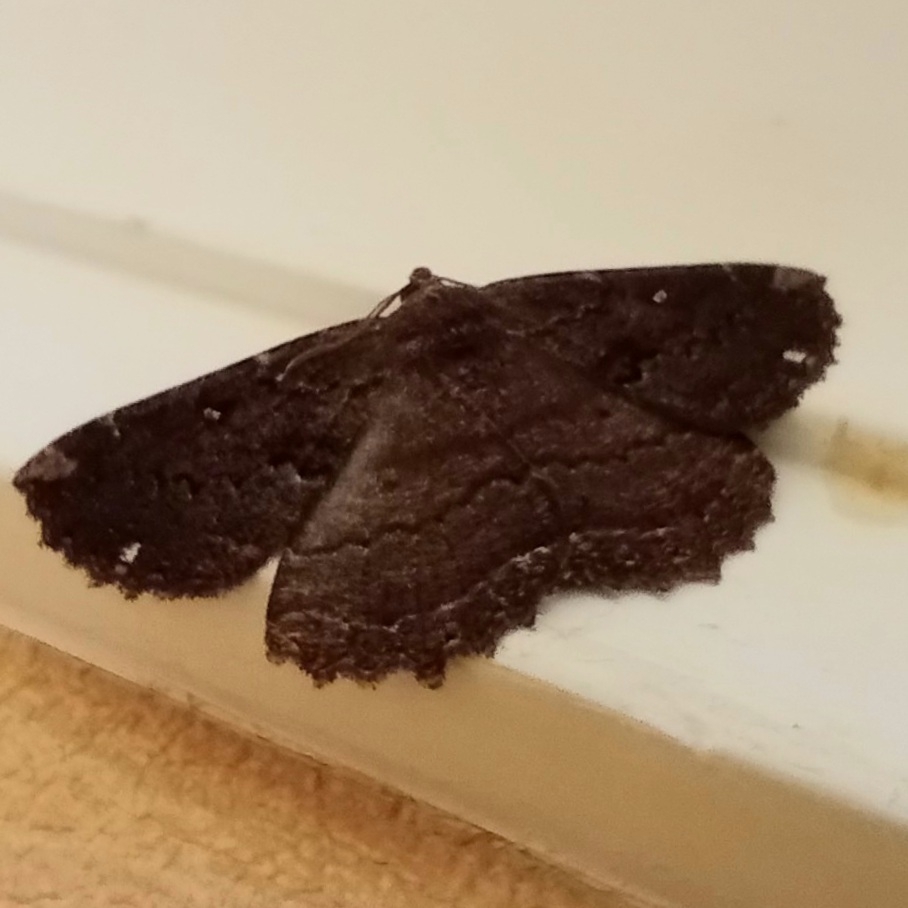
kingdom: Animalia
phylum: Arthropoda
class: Insecta
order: Lepidoptera
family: Geometridae
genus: Gellonia
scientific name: Gellonia dejectaria
